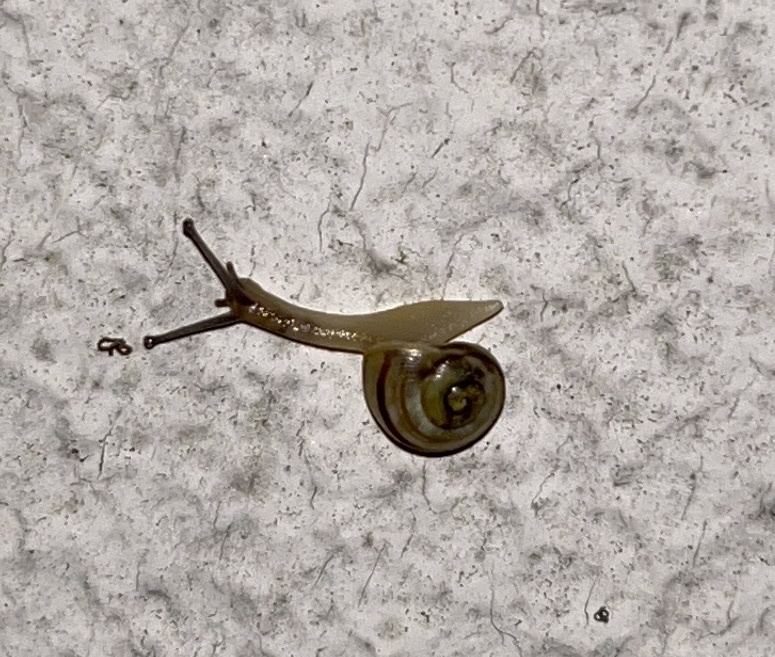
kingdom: Animalia
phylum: Mollusca
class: Gastropoda
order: Stylommatophora
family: Helicidae
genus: Cepaea
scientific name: Cepaea
